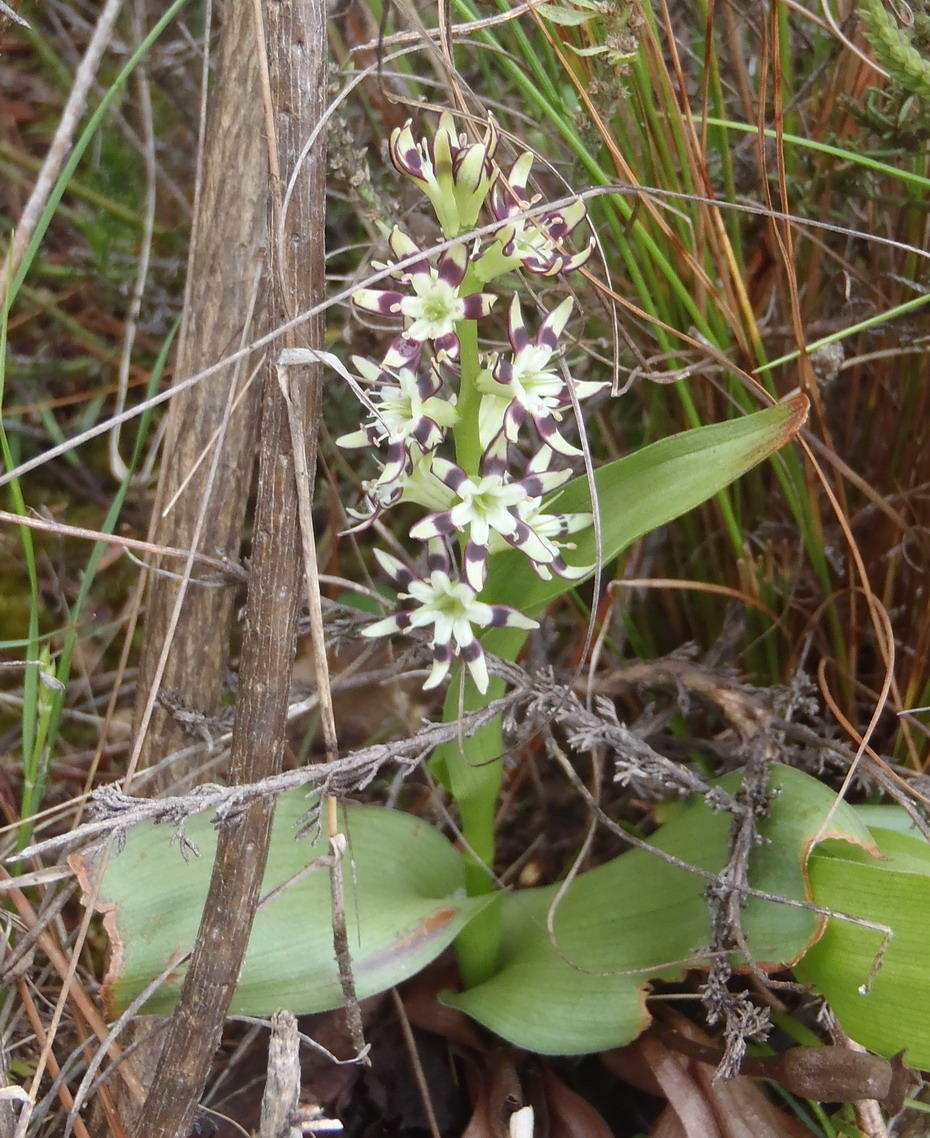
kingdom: Plantae
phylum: Tracheophyta
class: Liliopsida
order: Liliales
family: Colchicaceae
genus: Wurmbea
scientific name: Wurmbea variabilis
